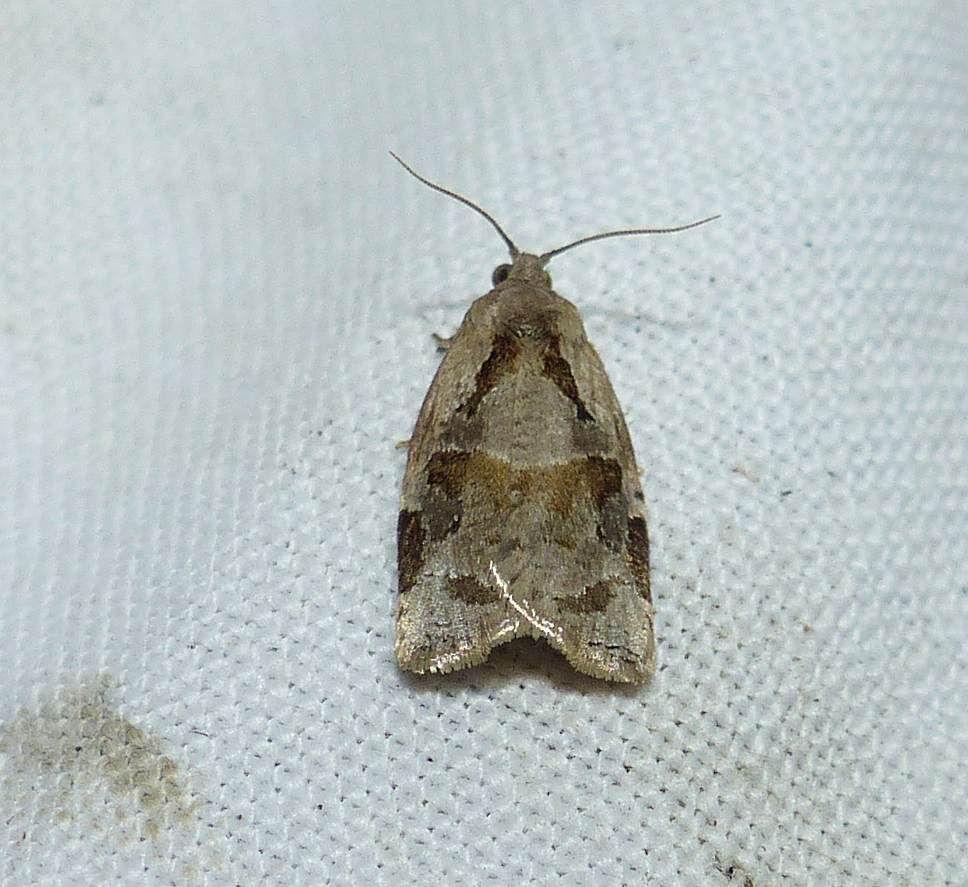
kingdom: Animalia
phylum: Arthropoda
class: Insecta
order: Lepidoptera
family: Tortricidae
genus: Archips
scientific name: Archips grisea
